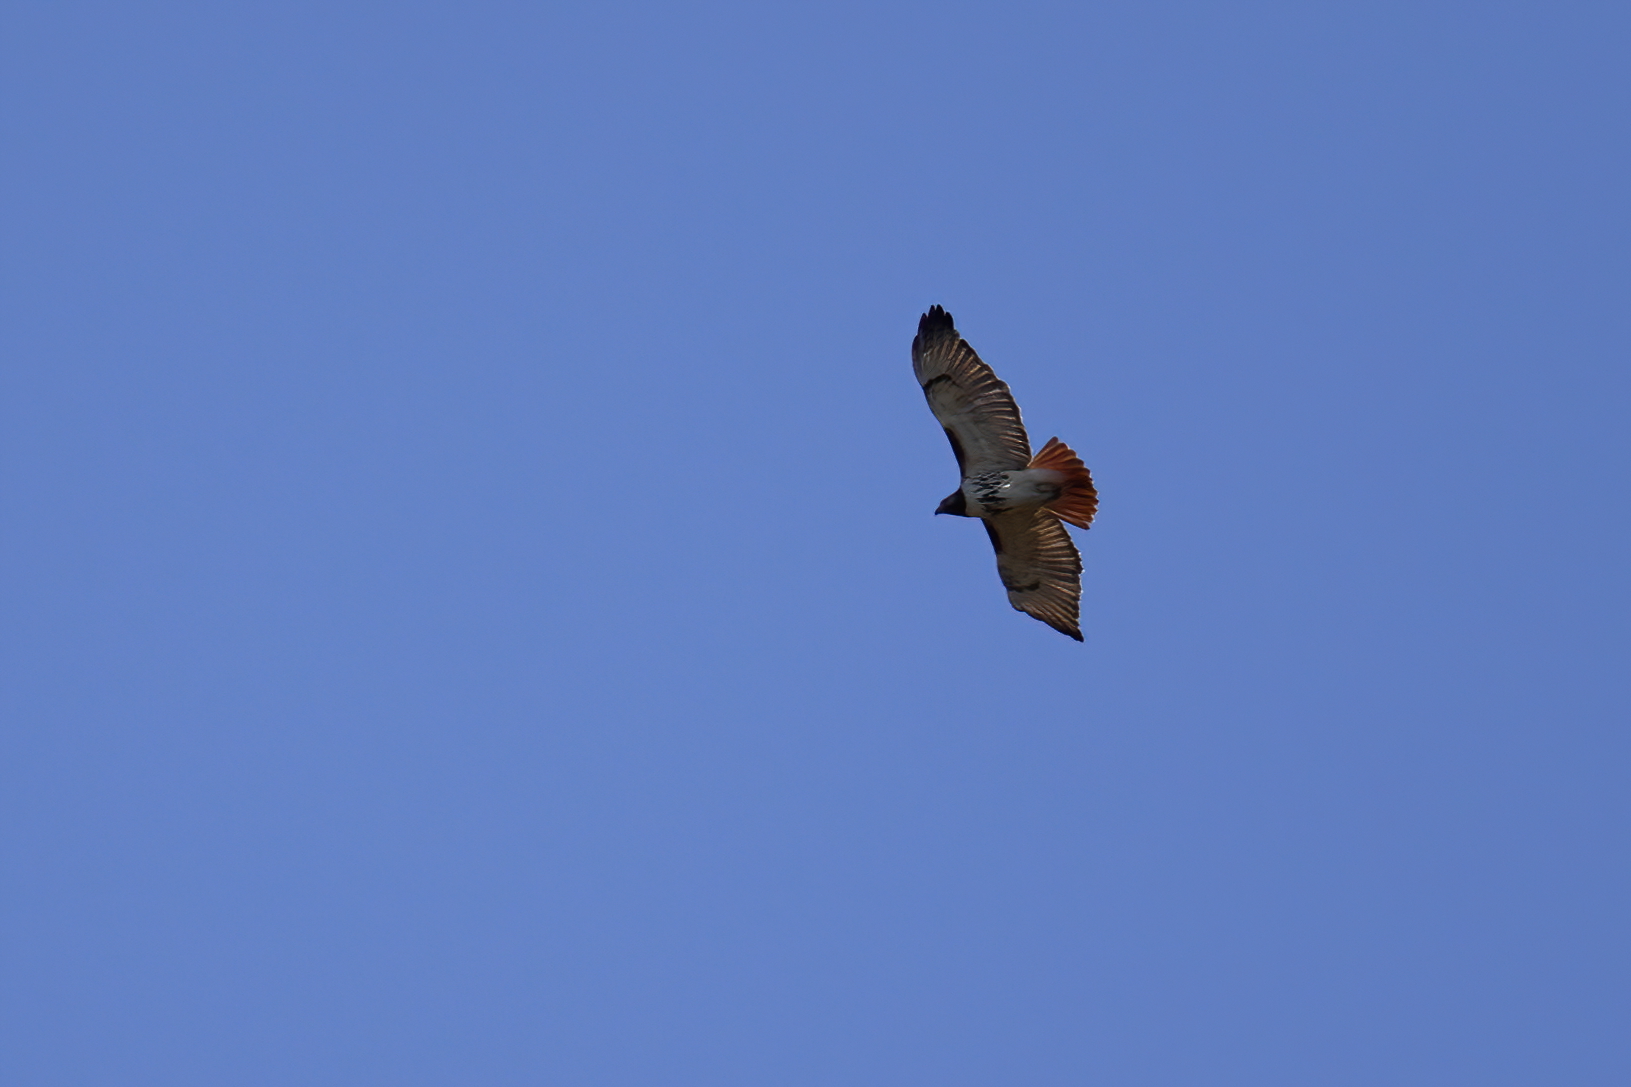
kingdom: Animalia
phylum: Chordata
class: Aves
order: Accipitriformes
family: Accipitridae
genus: Buteo
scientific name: Buteo jamaicensis
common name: Red-tailed hawk
